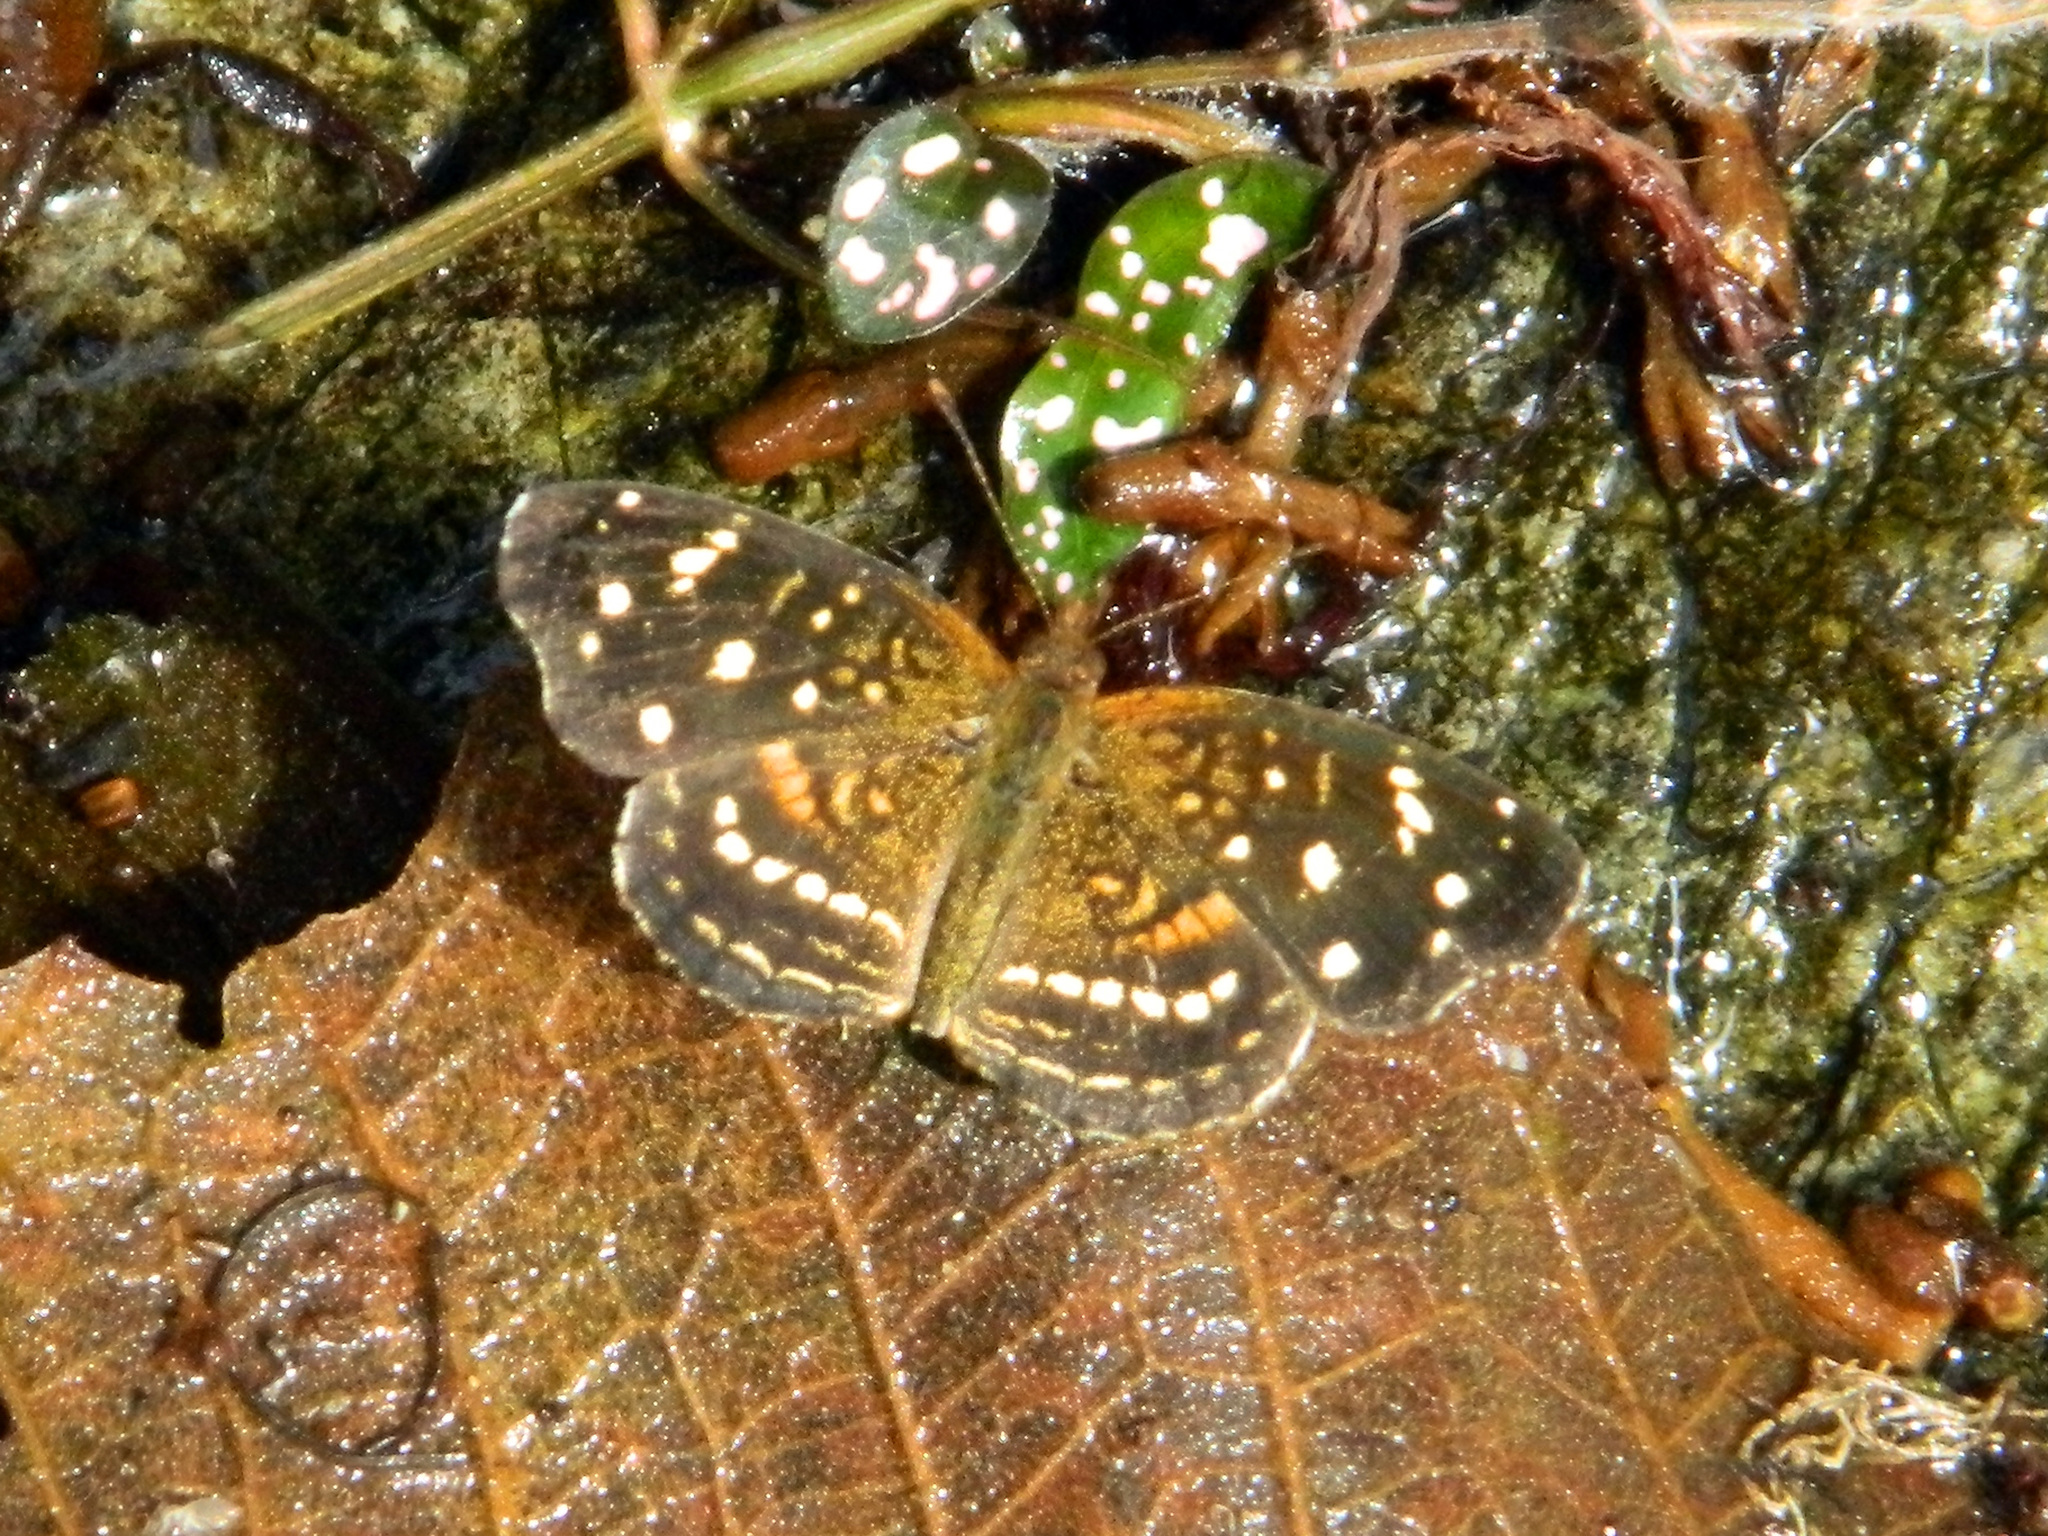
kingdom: Animalia
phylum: Arthropoda
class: Insecta
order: Lepidoptera
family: Nymphalidae
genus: Anthanassa
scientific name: Anthanassa ardys
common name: Ardys crescent
